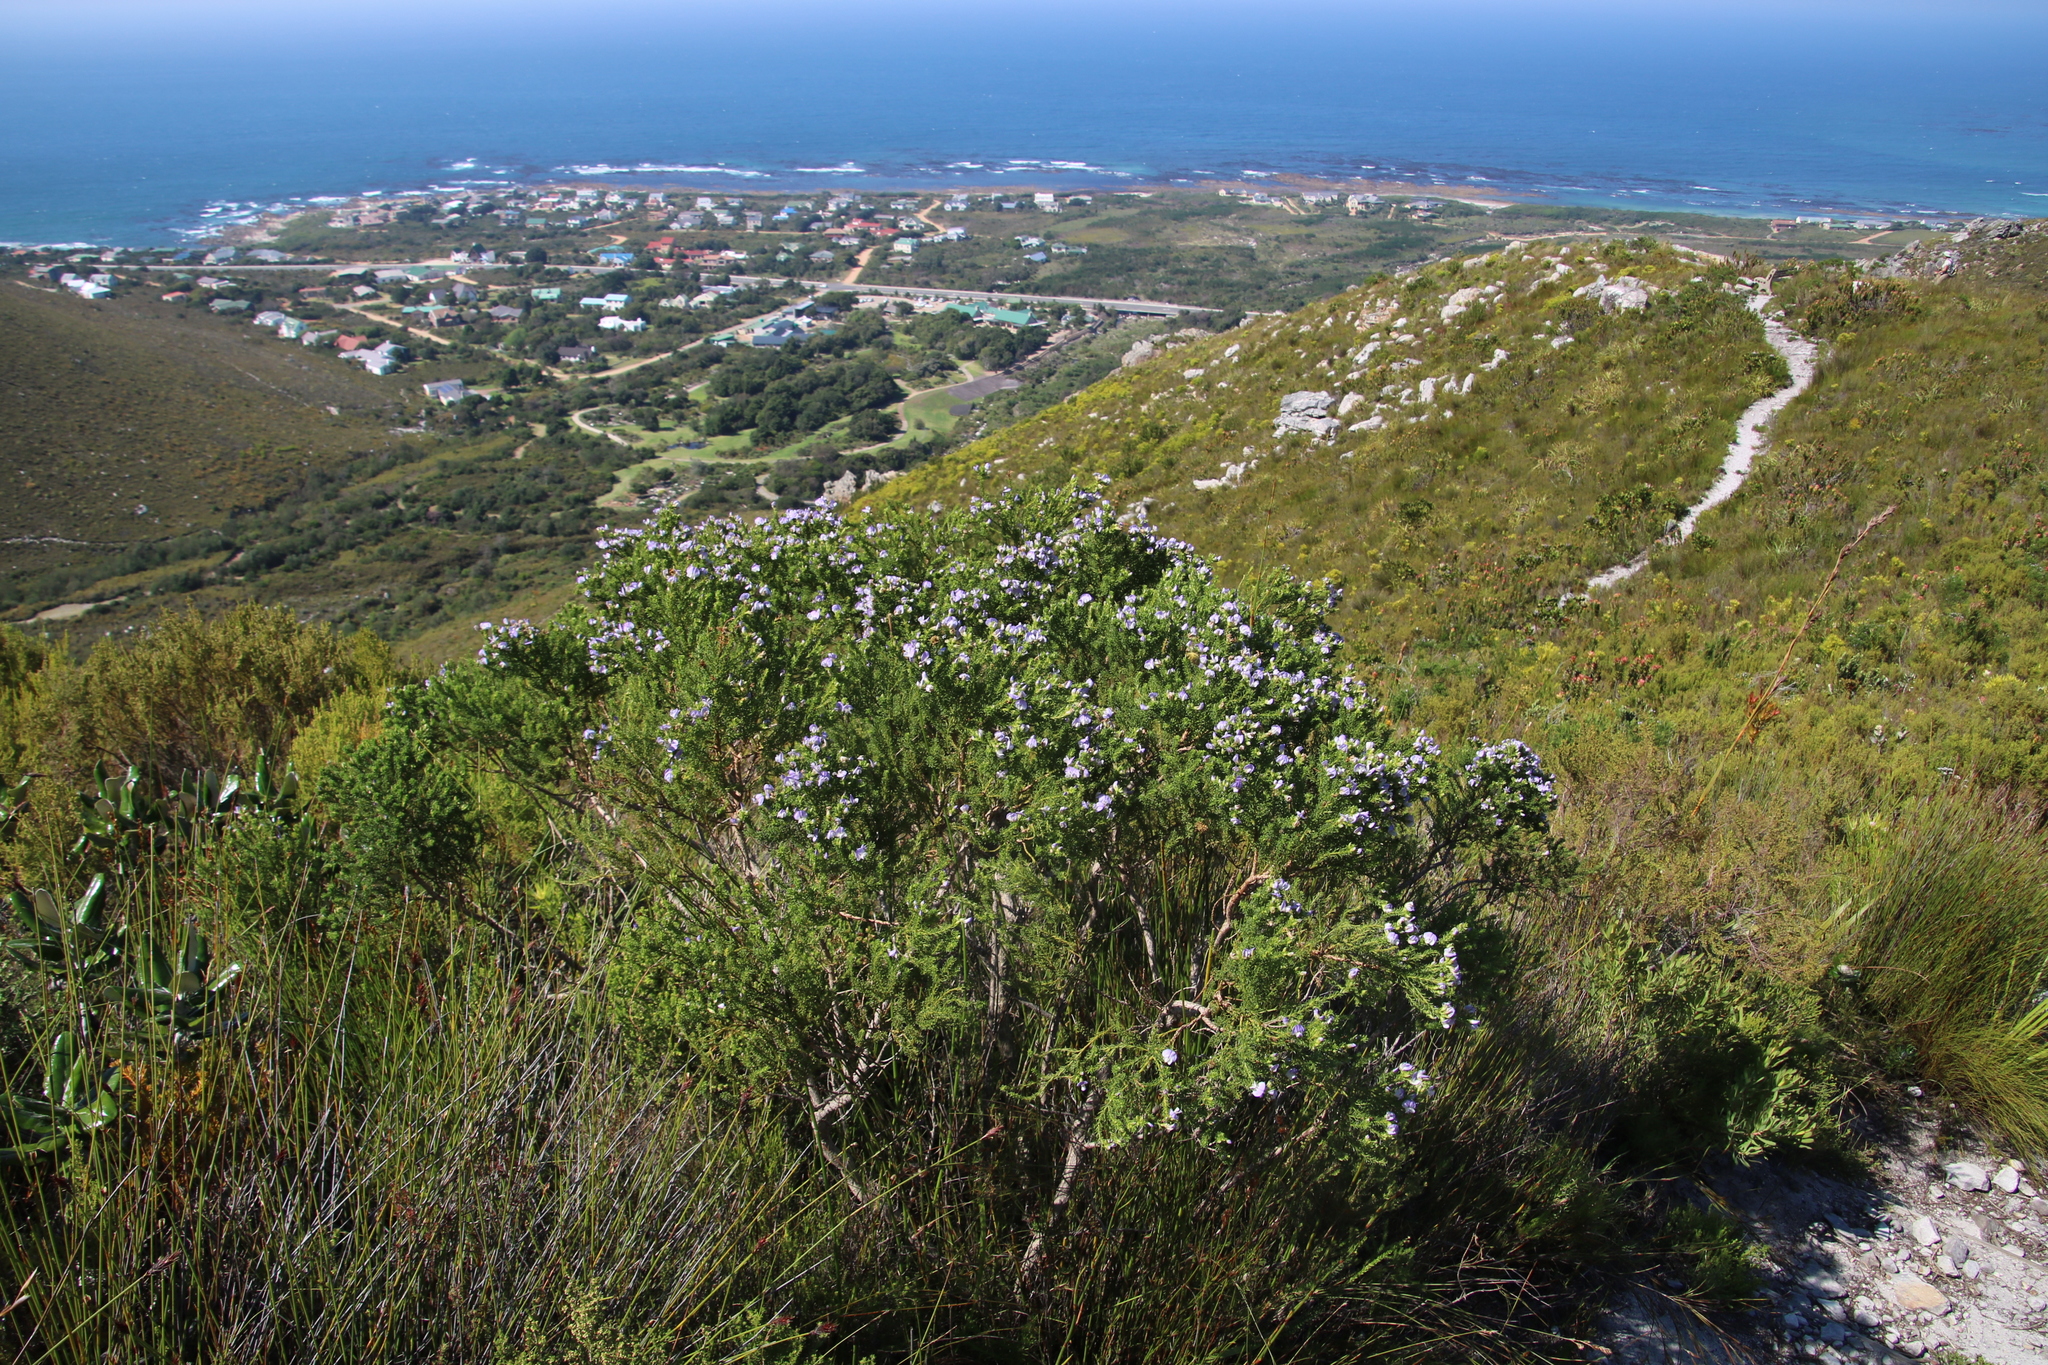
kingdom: Plantae
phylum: Tracheophyta
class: Magnoliopsida
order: Fabales
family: Fabaceae
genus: Psoralea
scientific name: Psoralea aculeata
